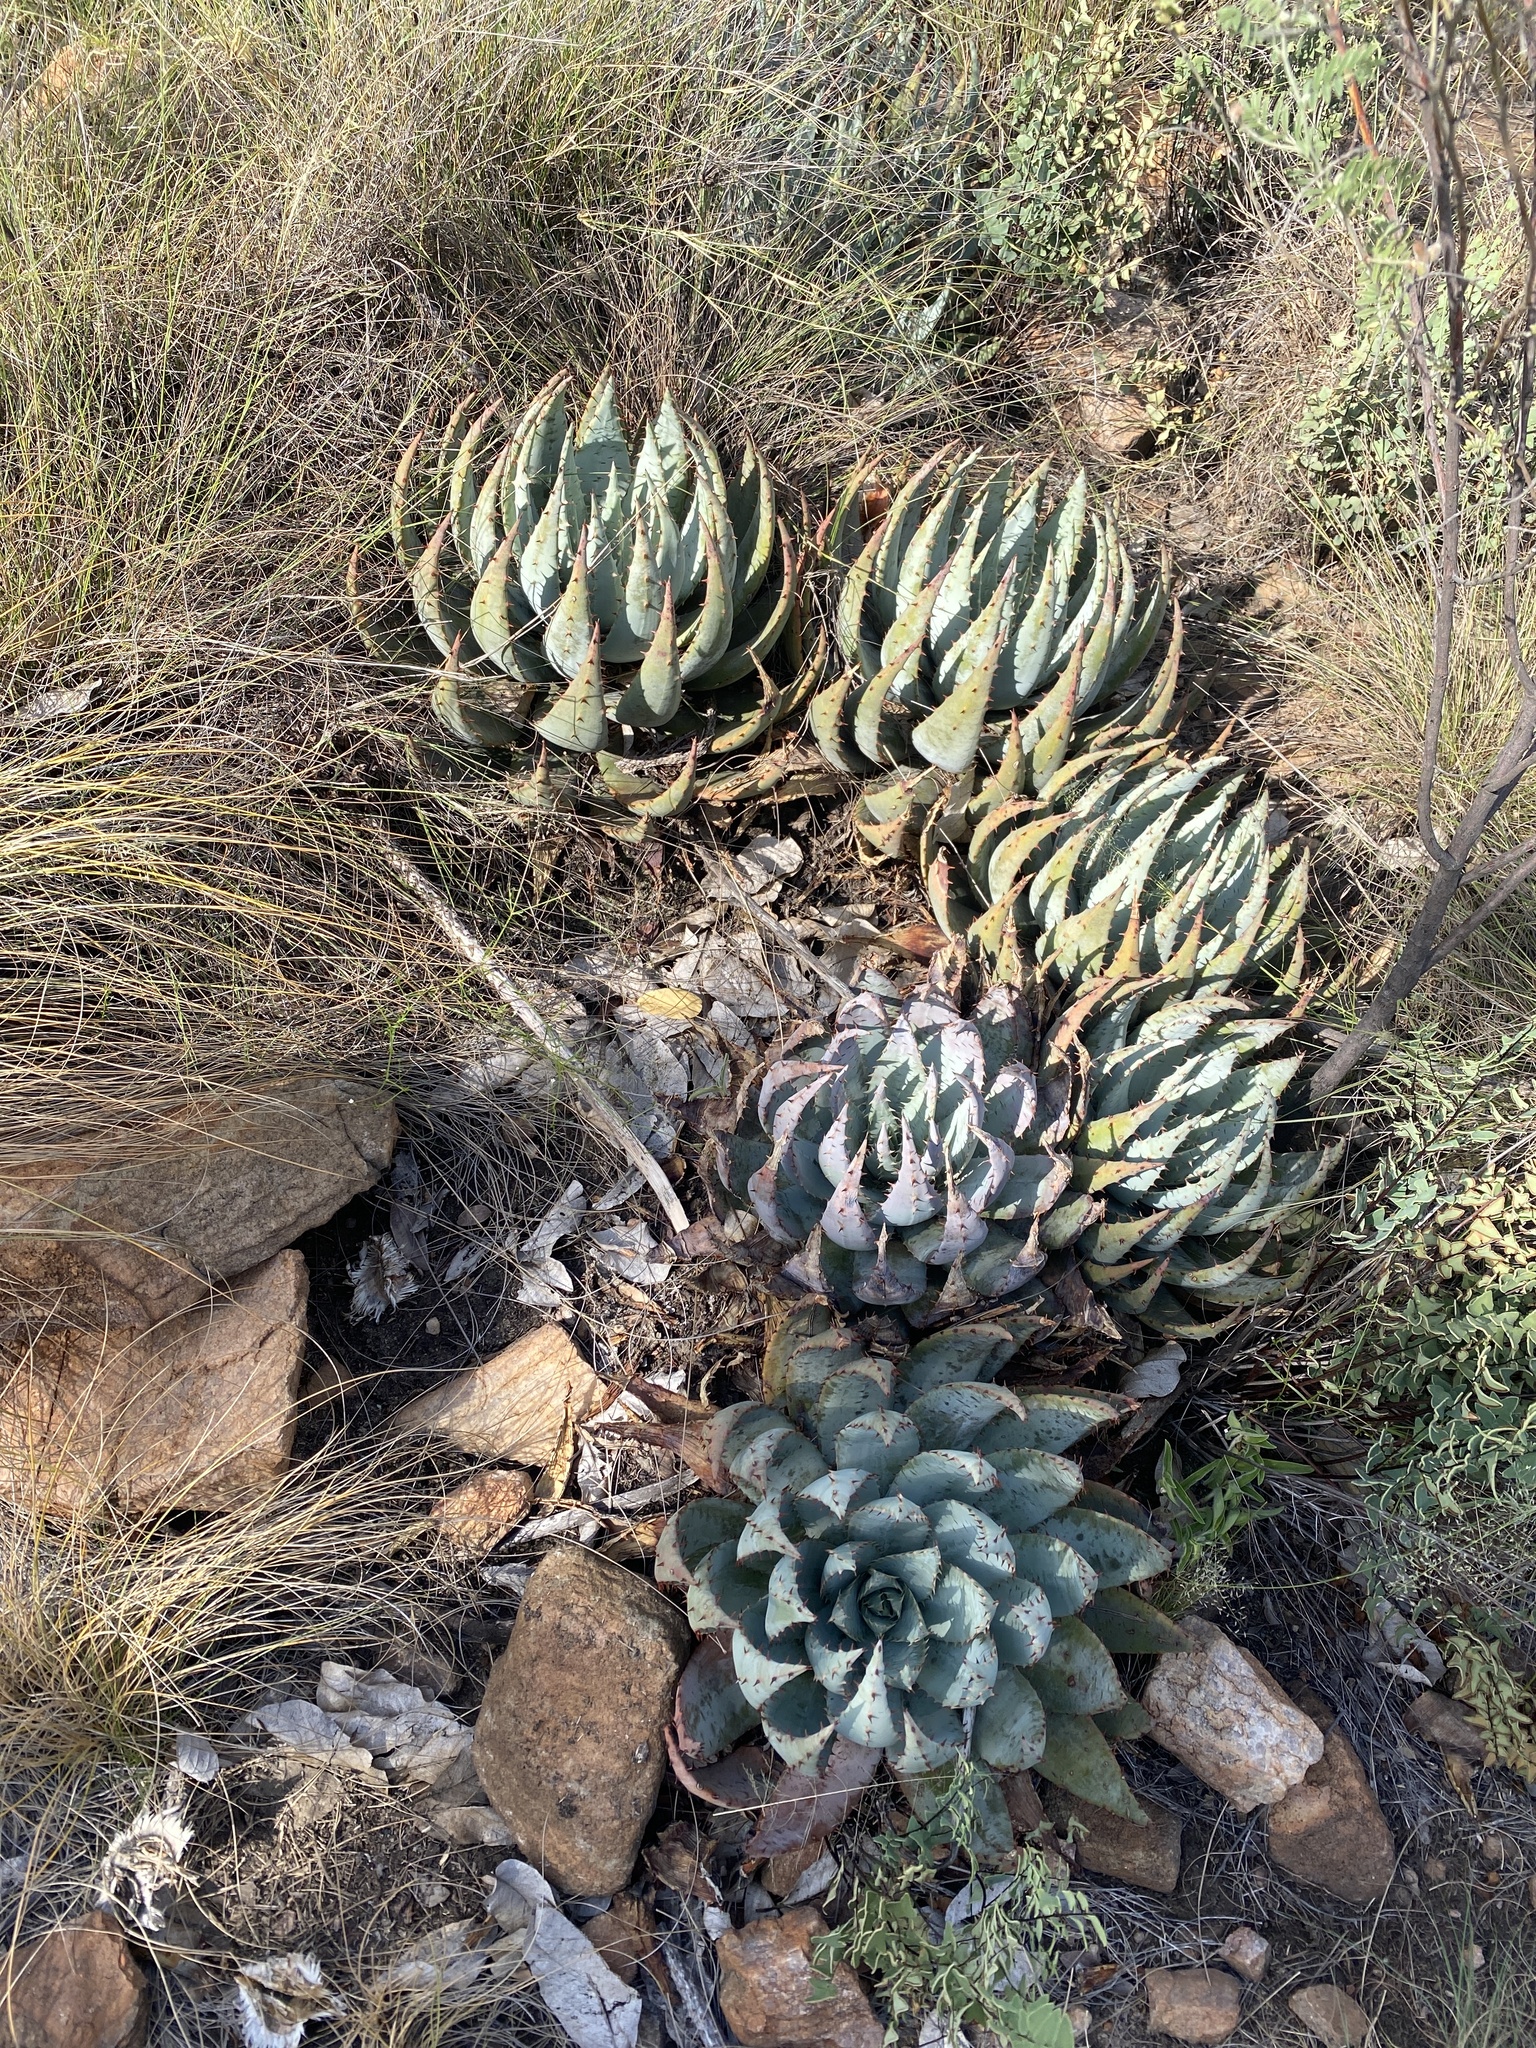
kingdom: Plantae
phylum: Tracheophyta
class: Liliopsida
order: Asparagales
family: Asphodelaceae
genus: Aloe
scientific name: Aloe peglerae
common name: Red-hot poker
